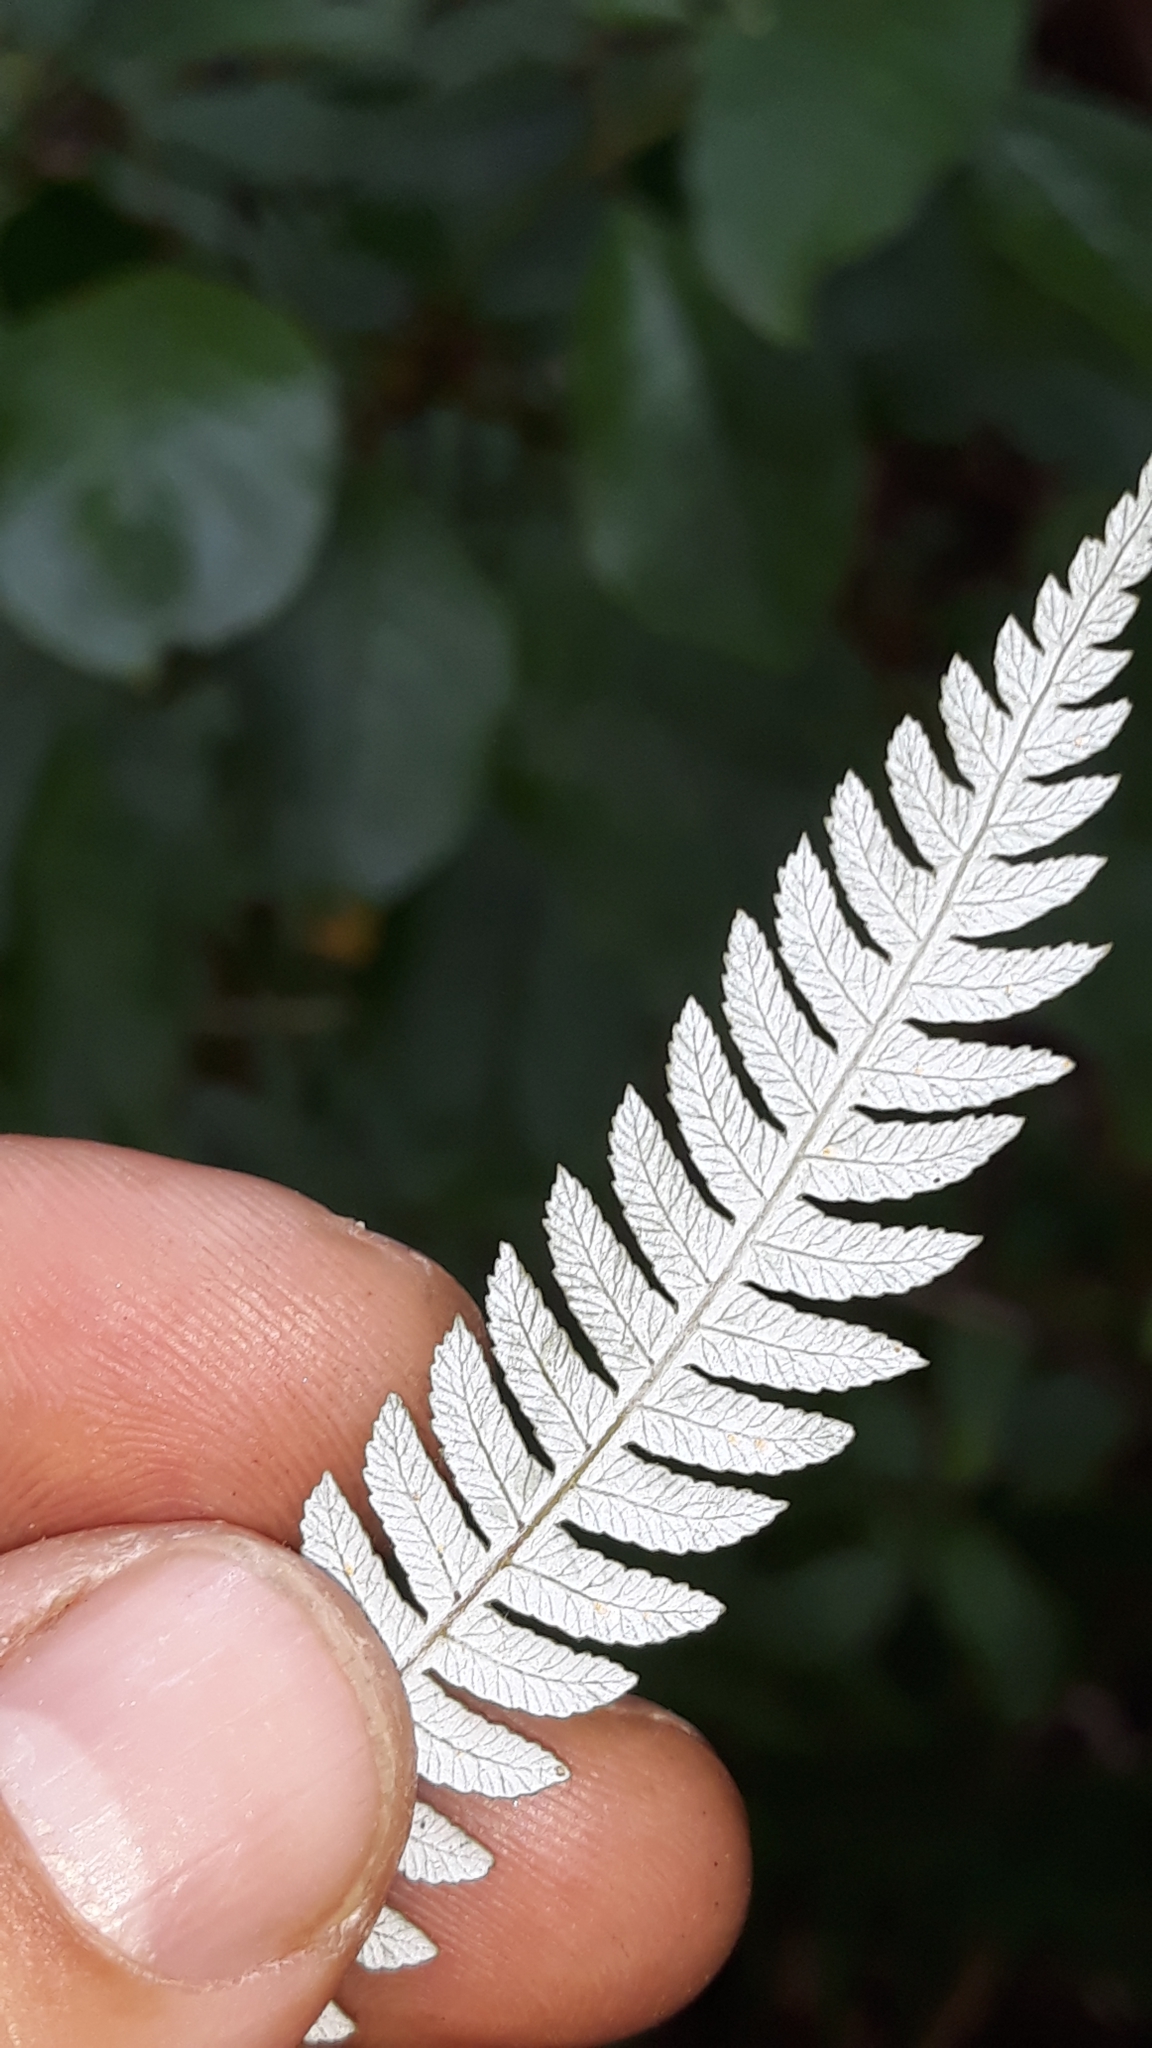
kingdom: Plantae
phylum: Tracheophyta
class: Polypodiopsida
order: Cyatheales
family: Cyatheaceae
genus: Alsophila
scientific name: Alsophila dealbata
